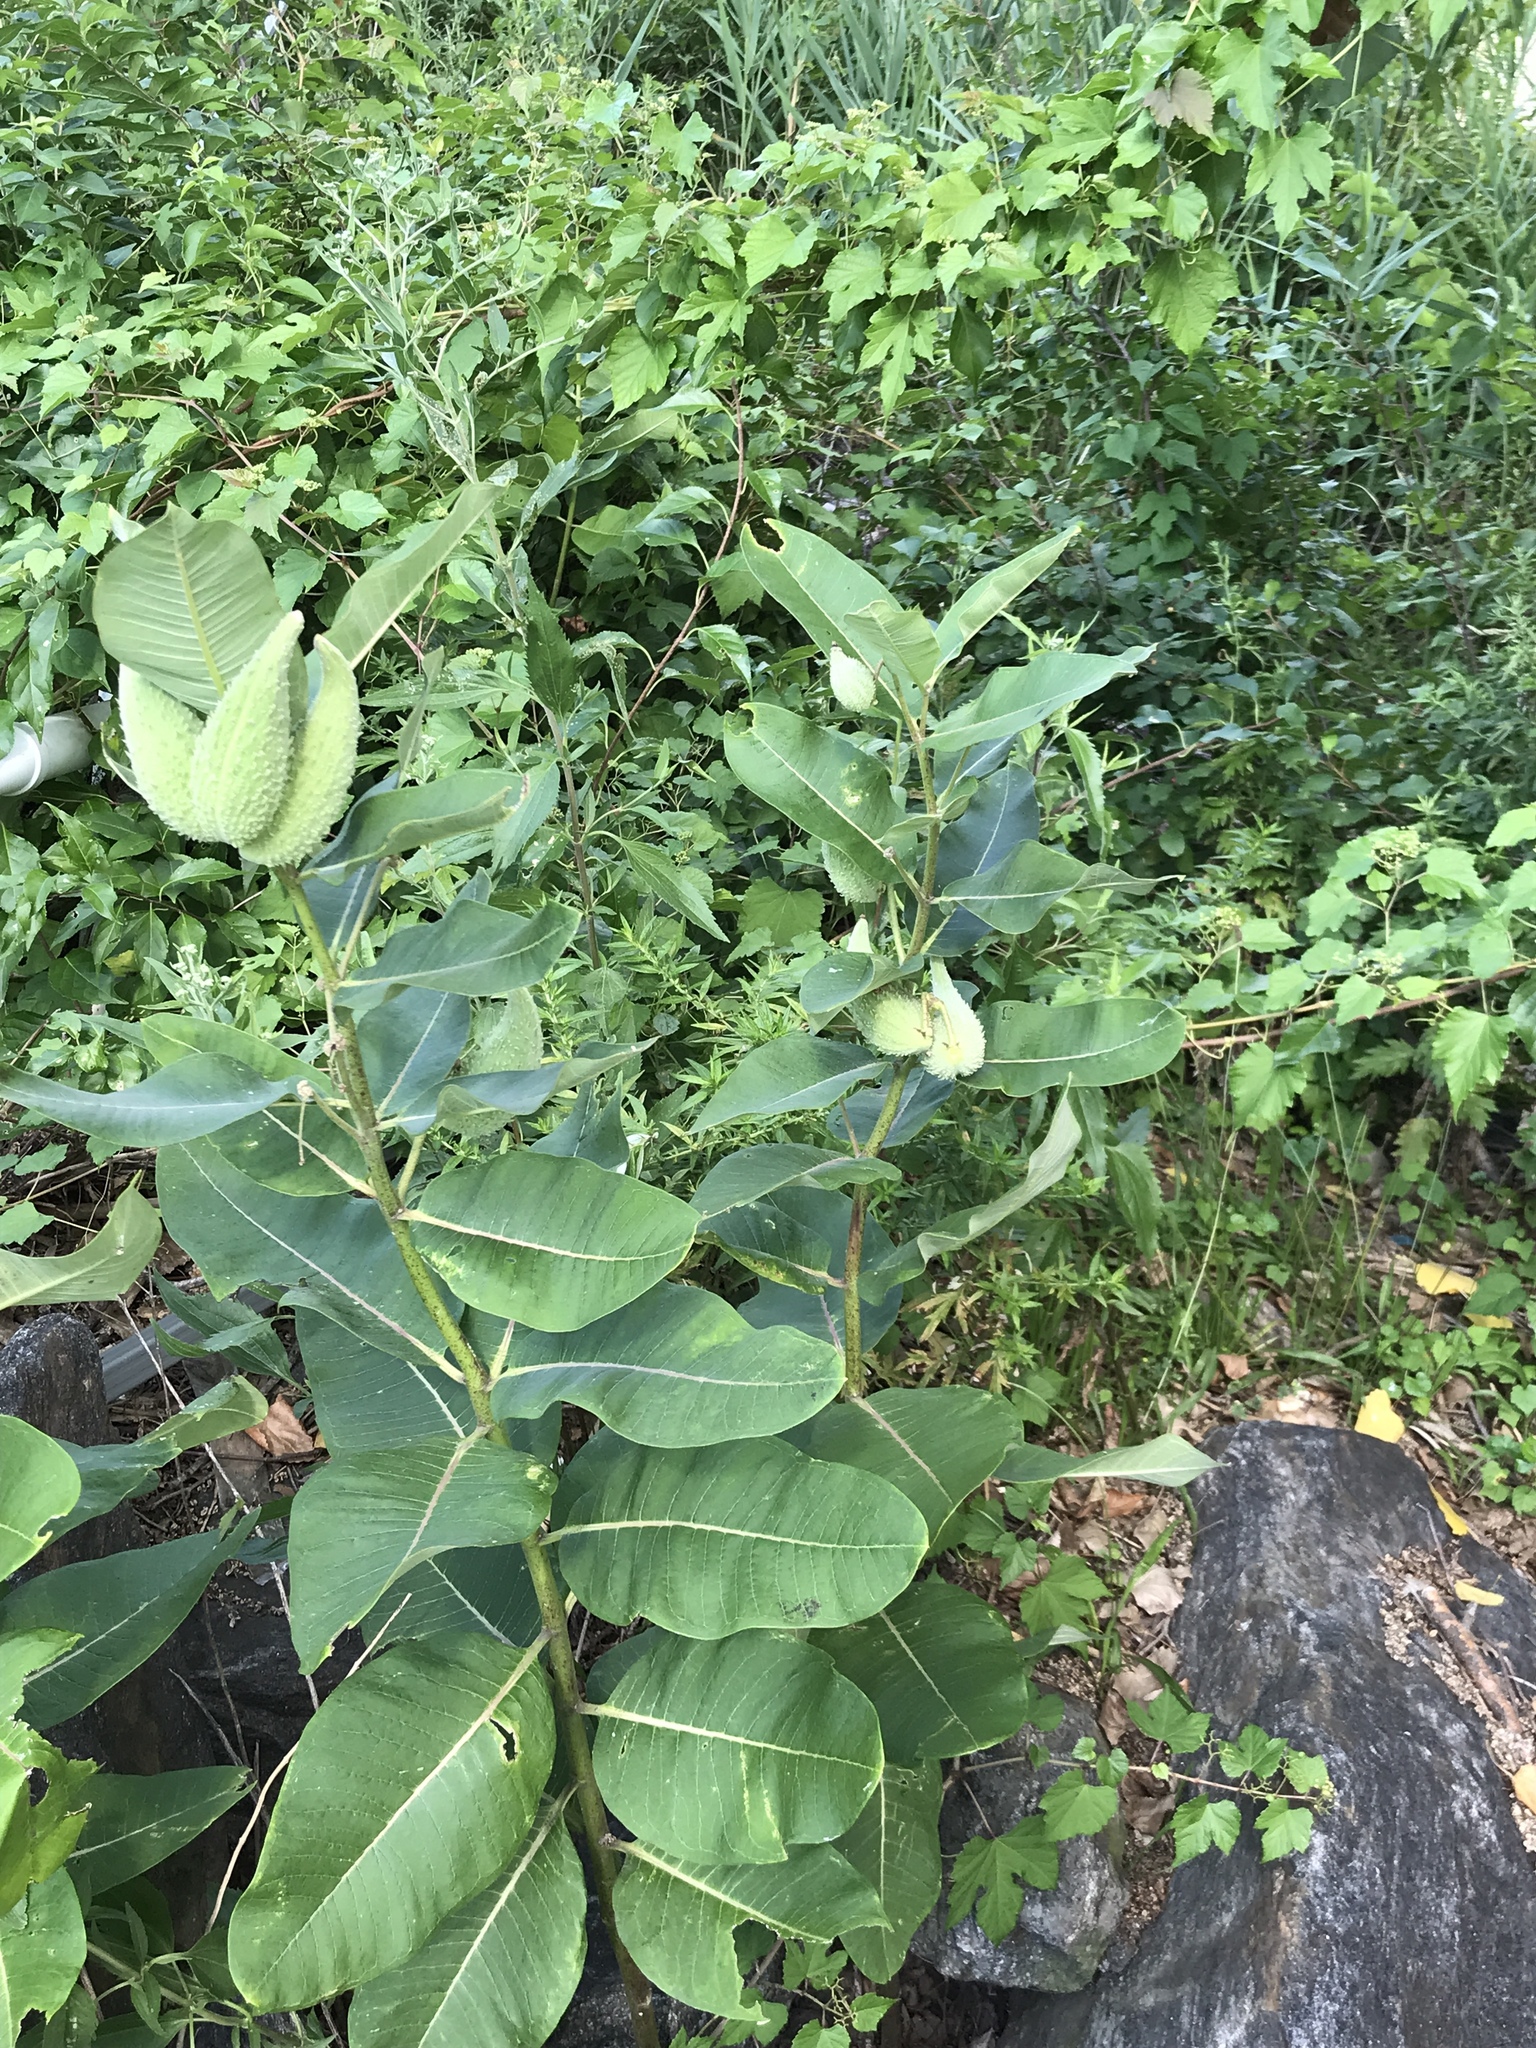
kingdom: Plantae
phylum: Tracheophyta
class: Magnoliopsida
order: Gentianales
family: Apocynaceae
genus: Asclepias
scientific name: Asclepias syriaca
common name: Common milkweed
